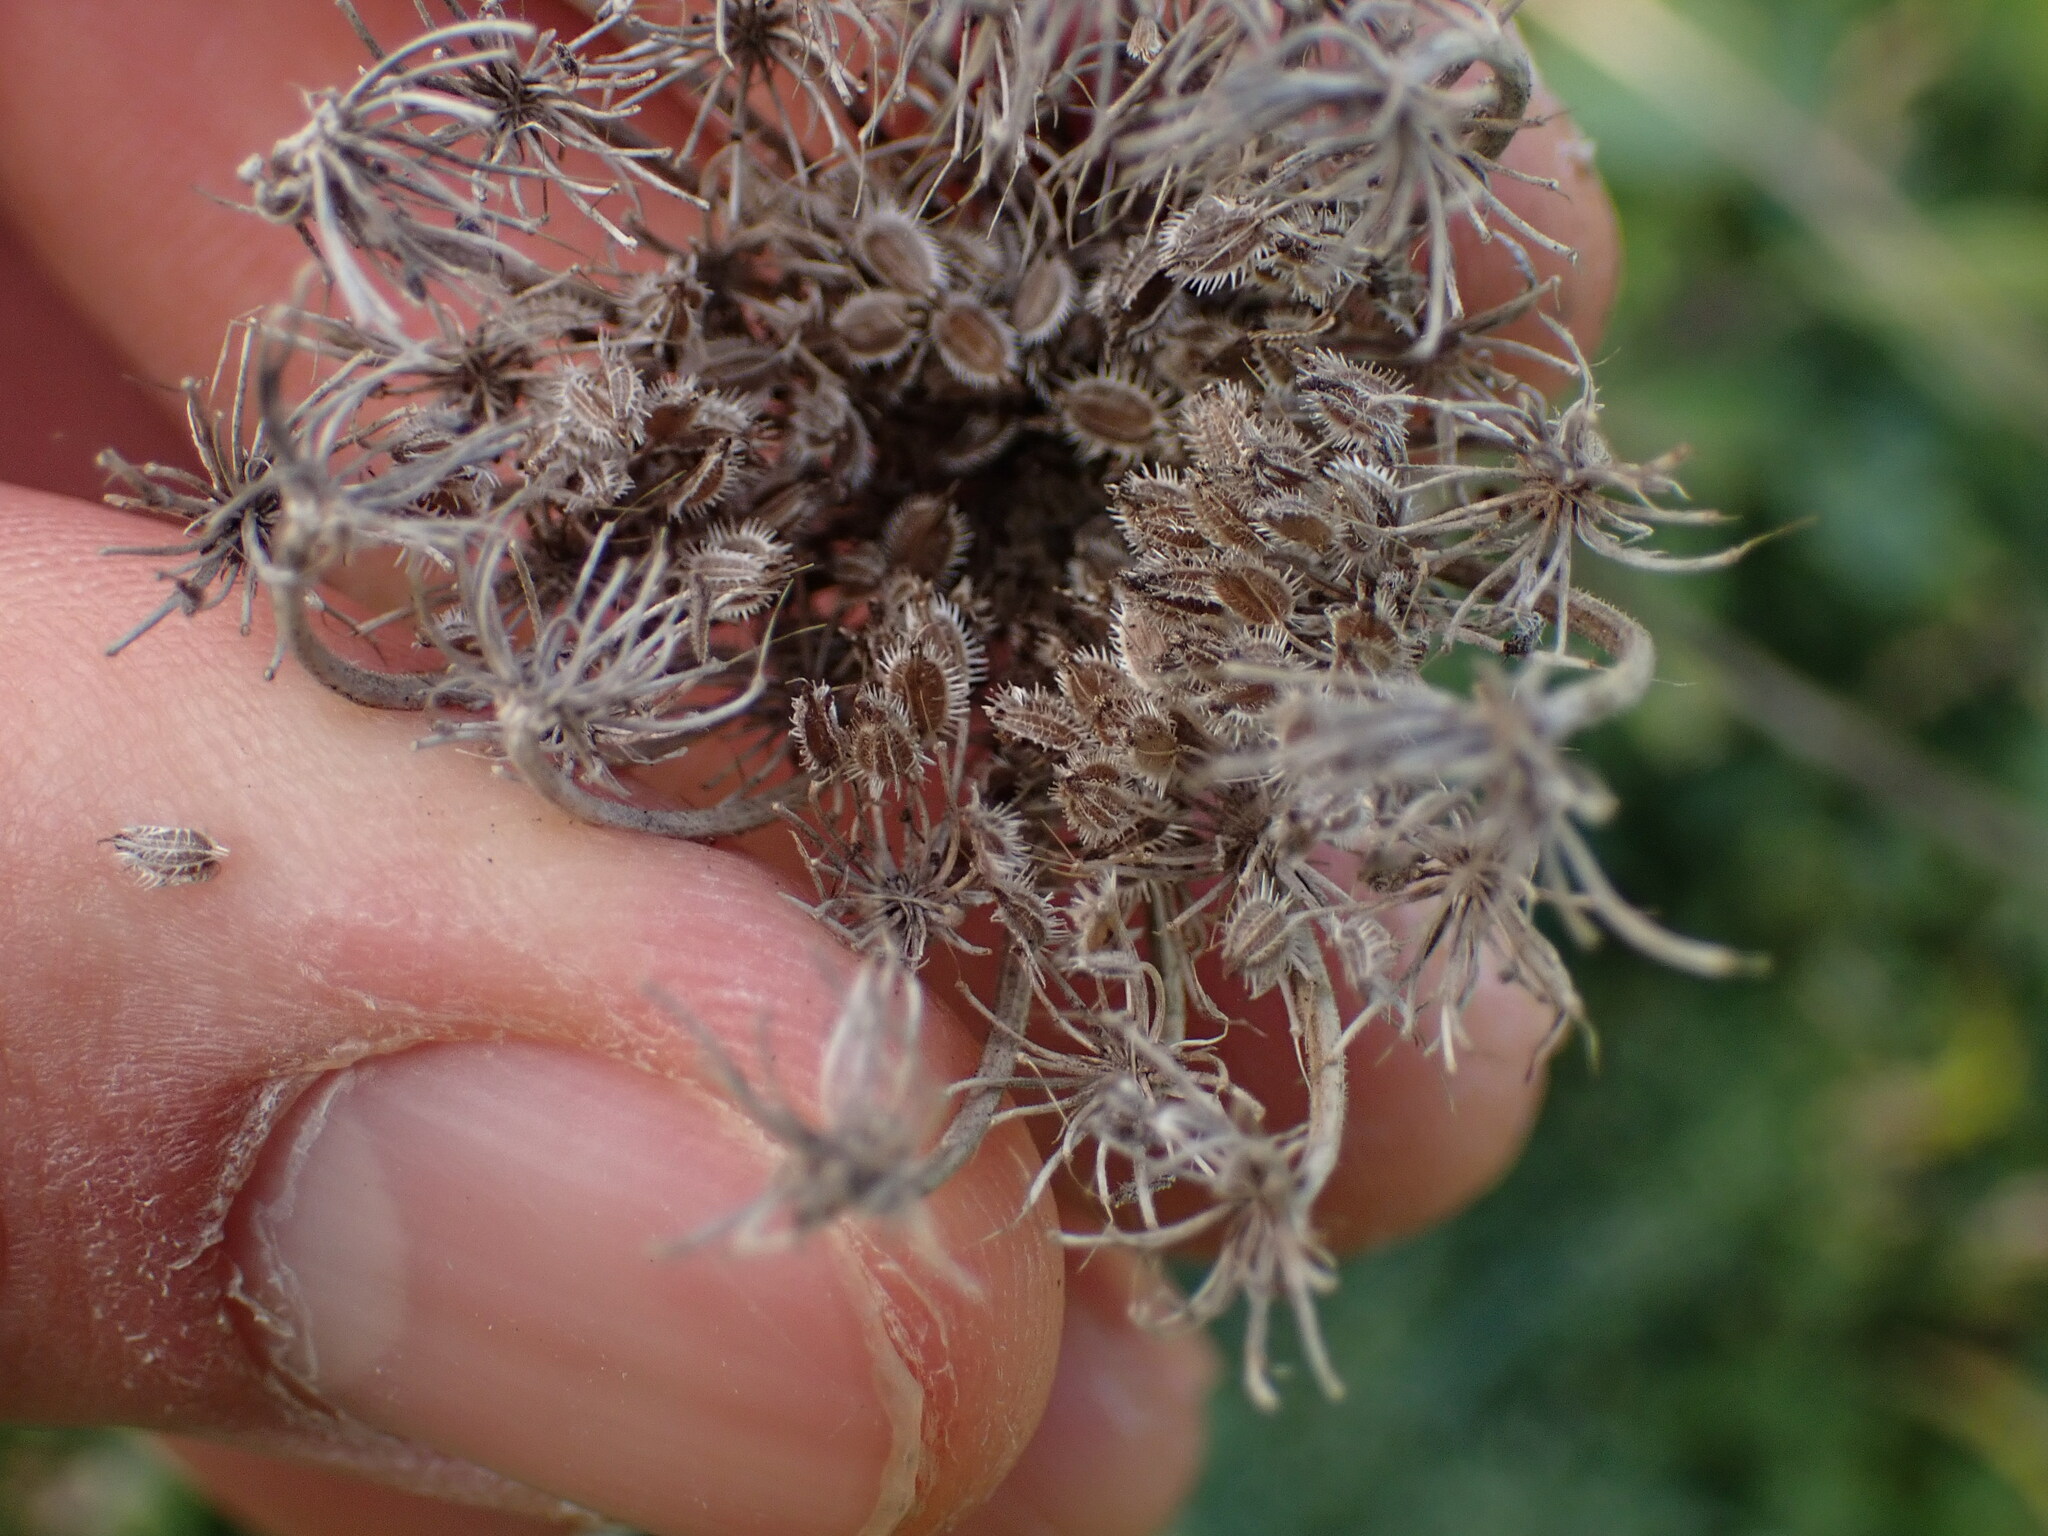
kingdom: Plantae
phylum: Tracheophyta
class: Magnoliopsida
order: Apiales
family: Apiaceae
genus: Daucus
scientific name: Daucus carota
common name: Wild carrot
